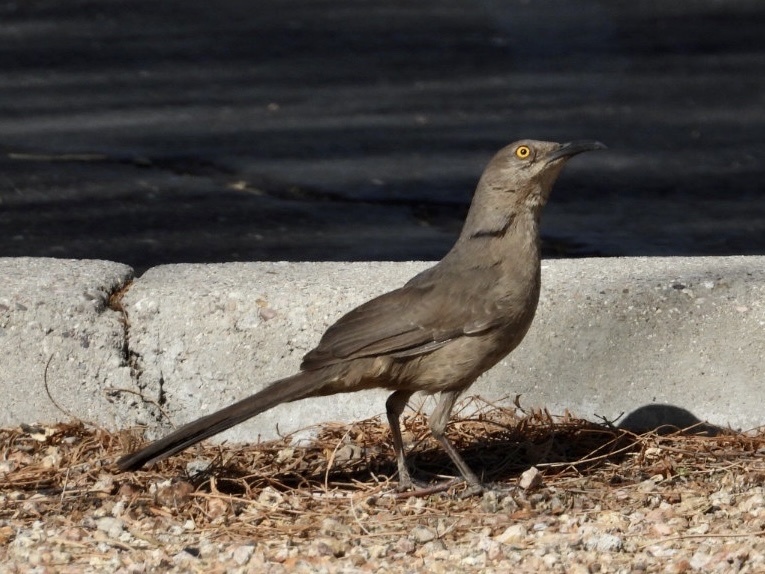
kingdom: Animalia
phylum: Chordata
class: Aves
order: Passeriformes
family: Mimidae
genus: Toxostoma
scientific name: Toxostoma curvirostre
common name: Curve-billed thrasher
